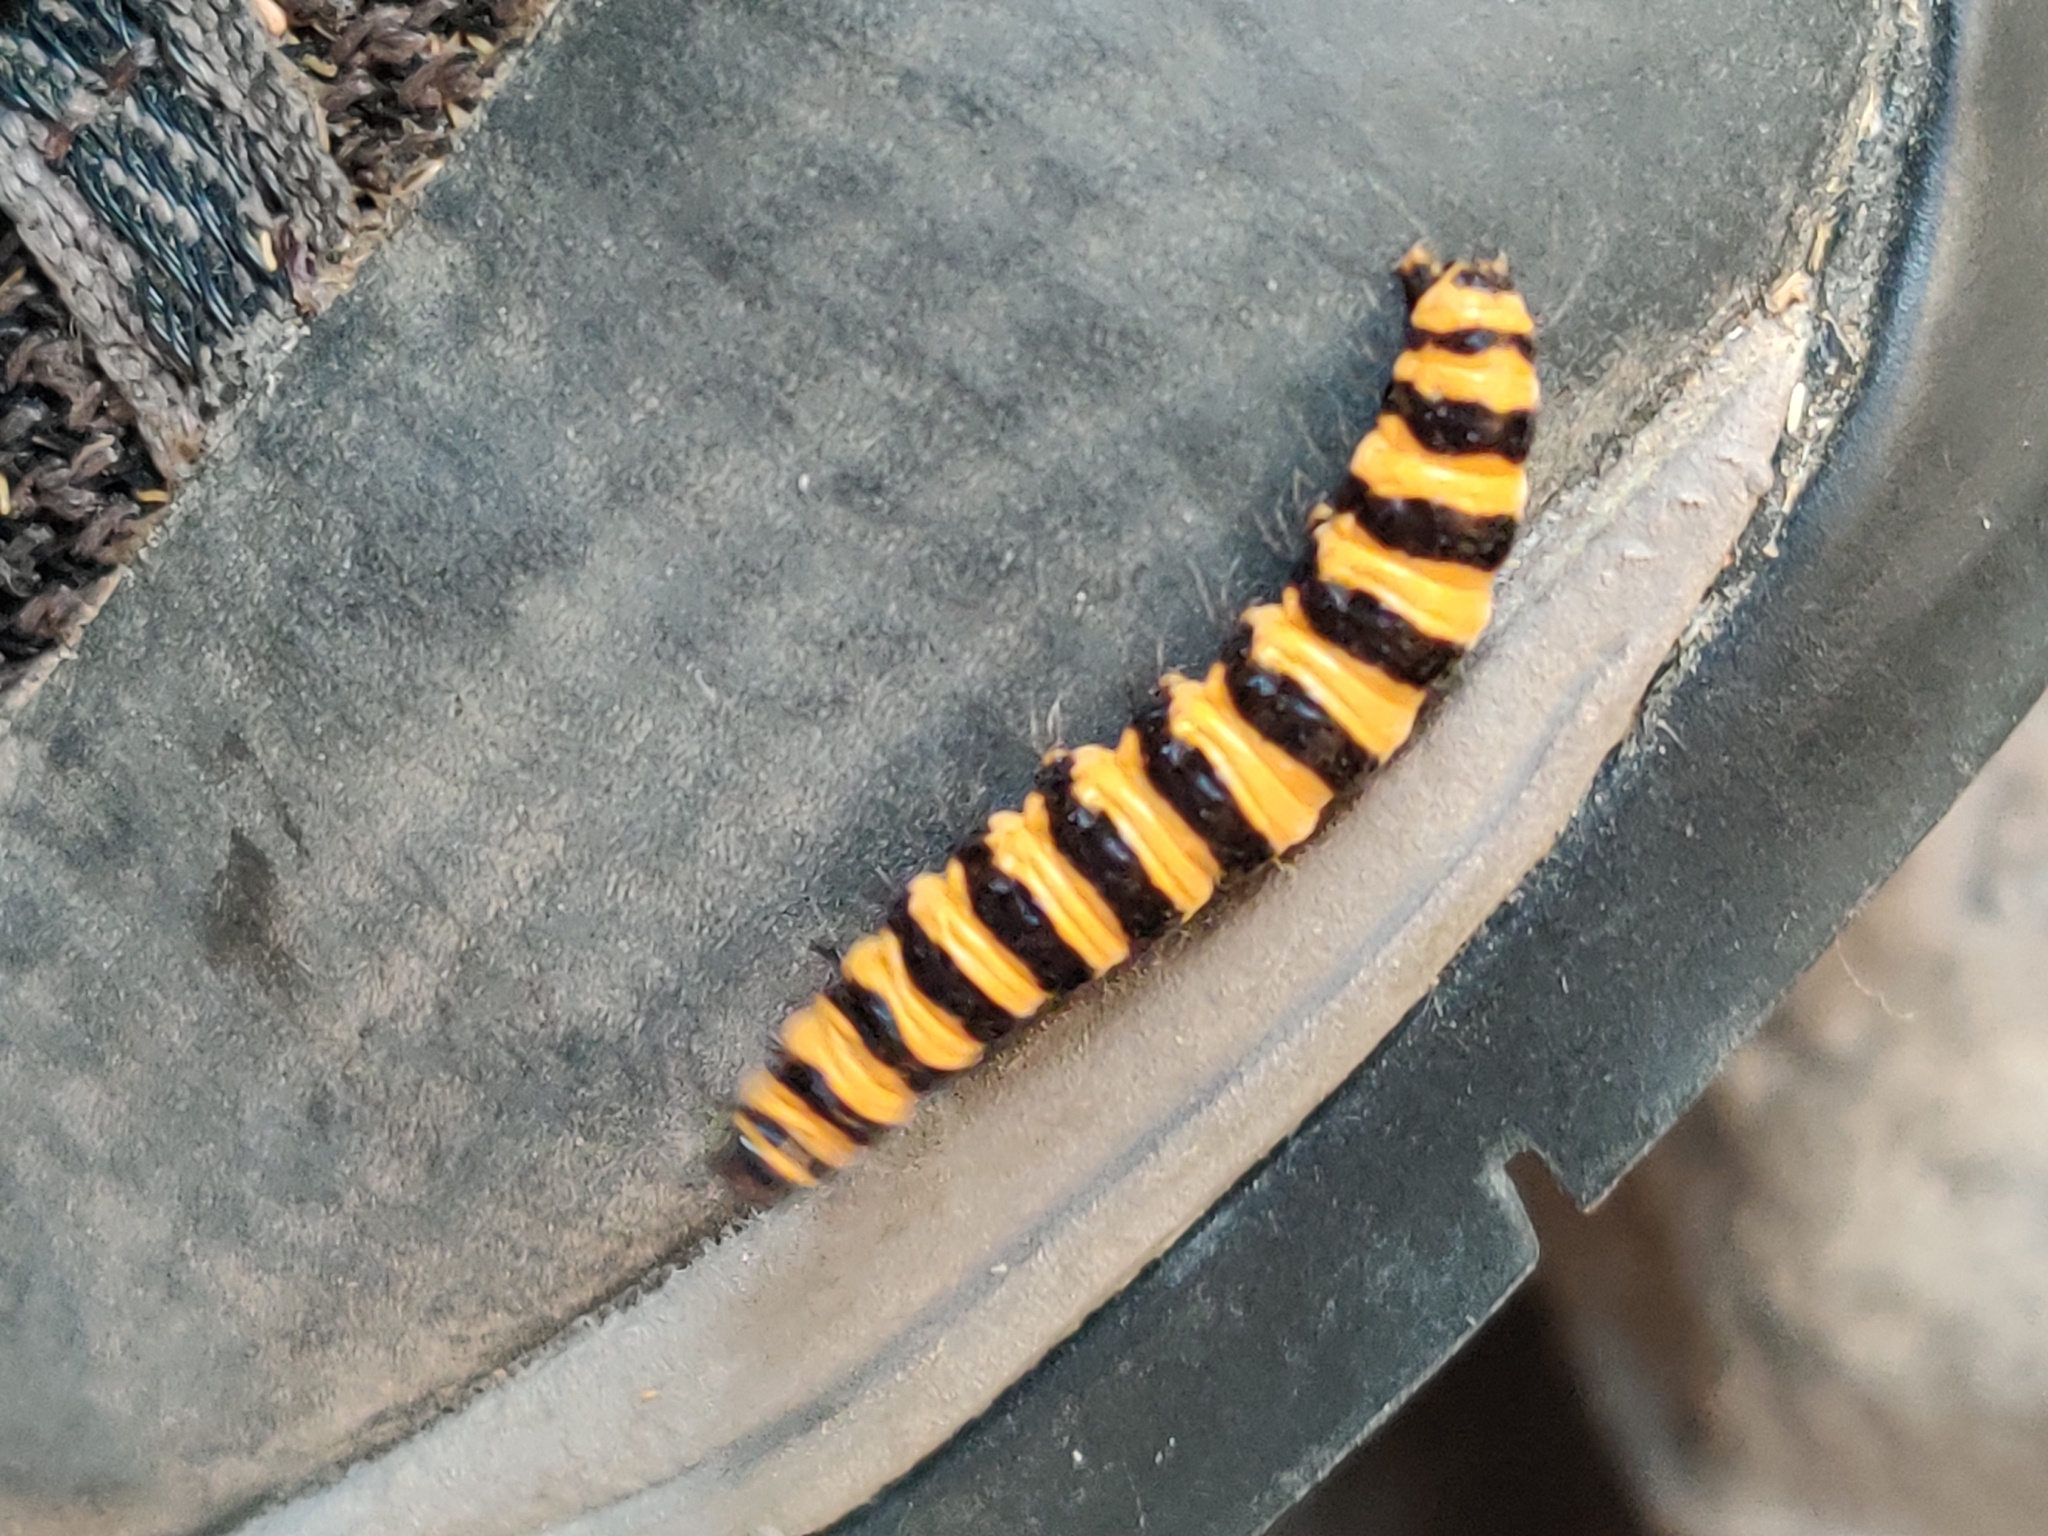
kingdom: Animalia
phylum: Arthropoda
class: Insecta
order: Lepidoptera
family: Erebidae
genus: Tyria
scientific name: Tyria jacobaeae
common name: Cinnabar
